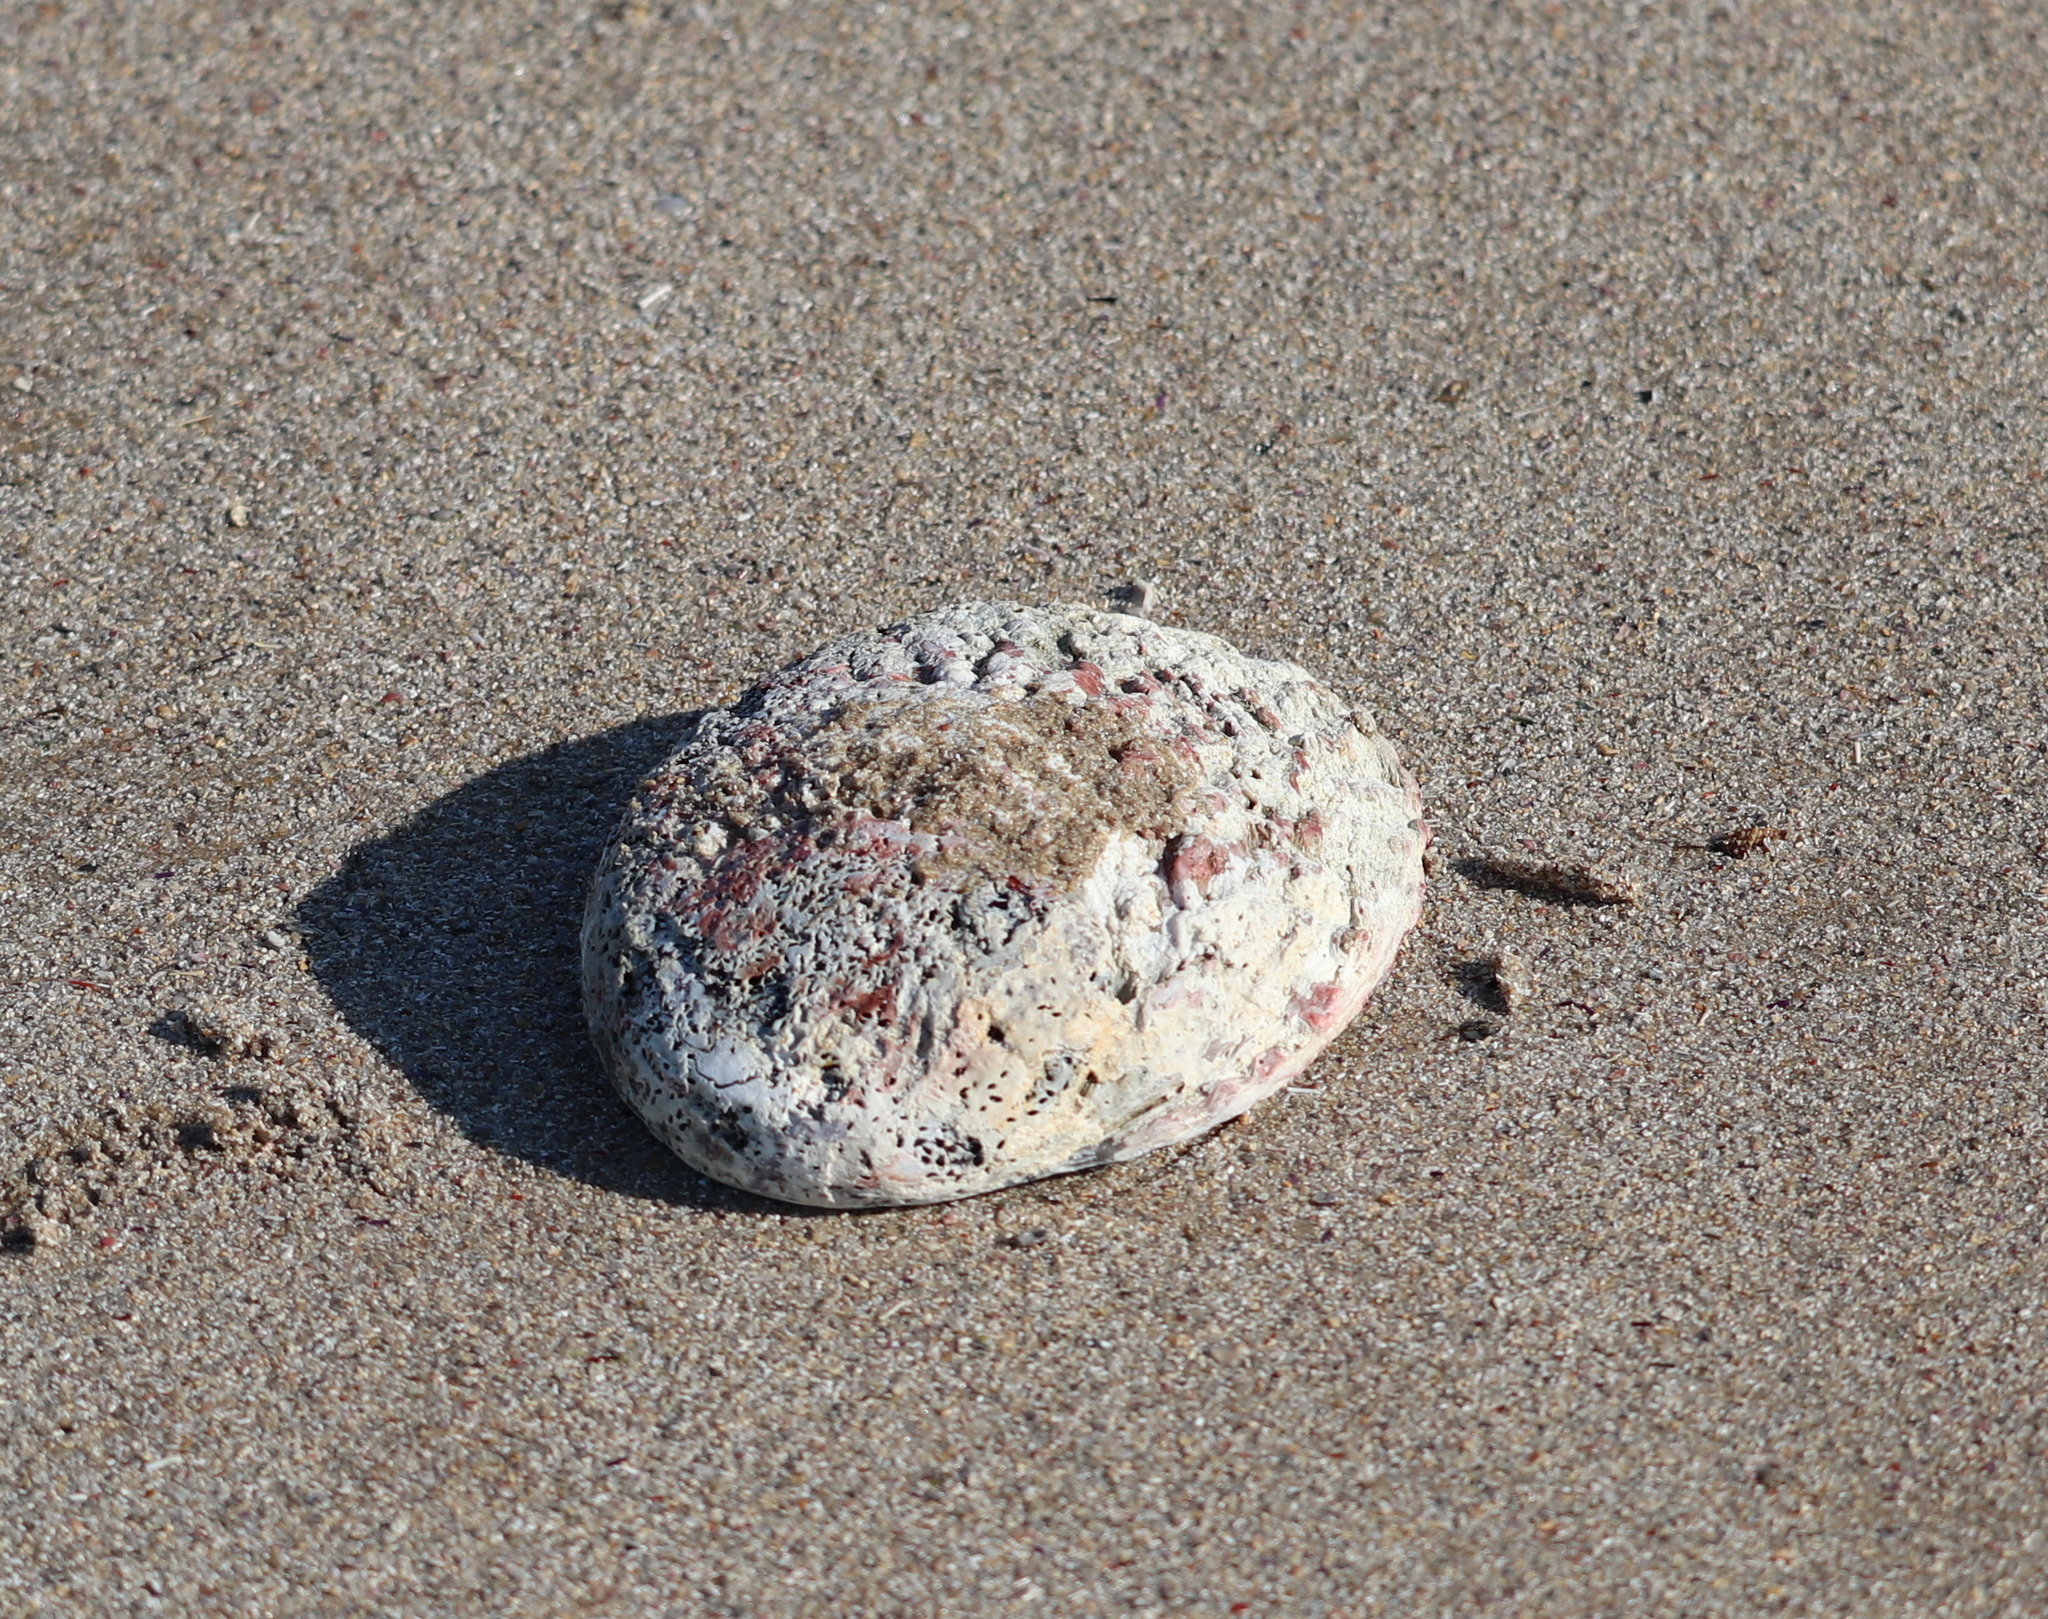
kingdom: Animalia
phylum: Mollusca
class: Gastropoda
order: Lepetellida
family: Haliotidae
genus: Haliotis
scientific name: Haliotis midae
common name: Perlemoen
